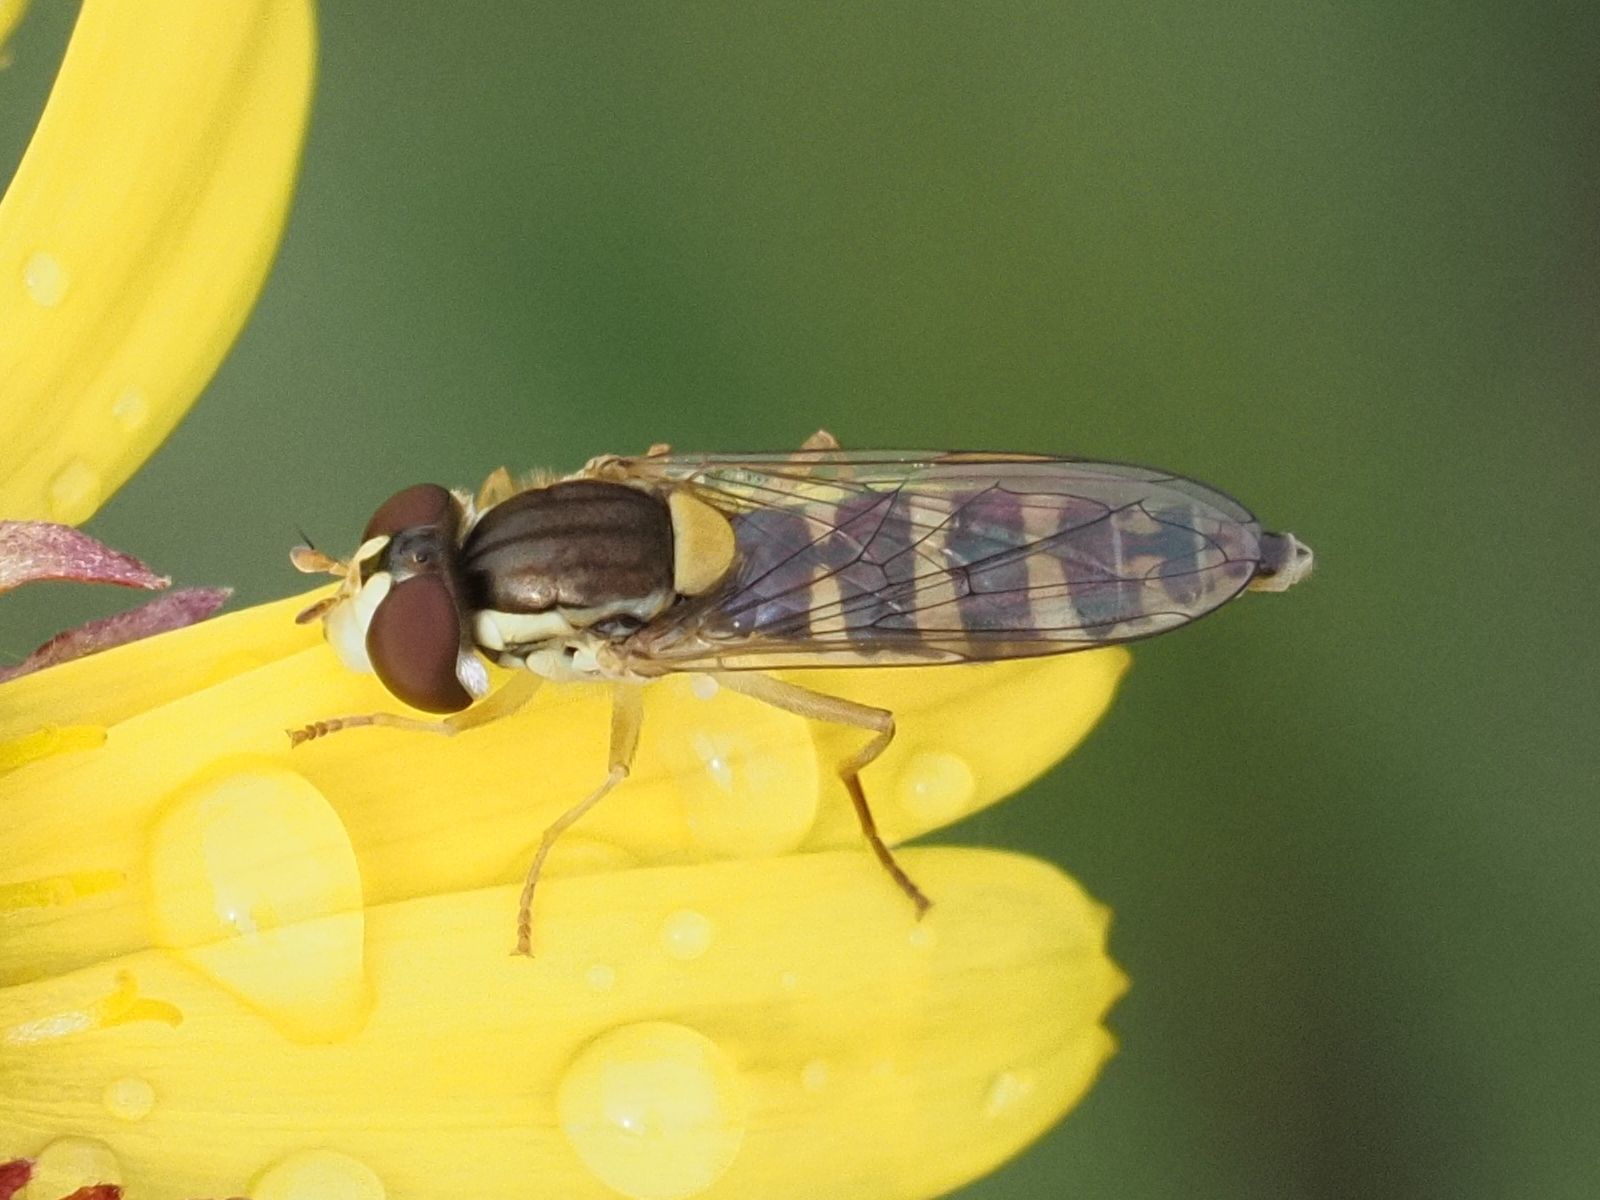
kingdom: Animalia
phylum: Arthropoda
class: Insecta
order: Diptera
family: Syrphidae
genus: Sphaerophoria
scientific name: Sphaerophoria
